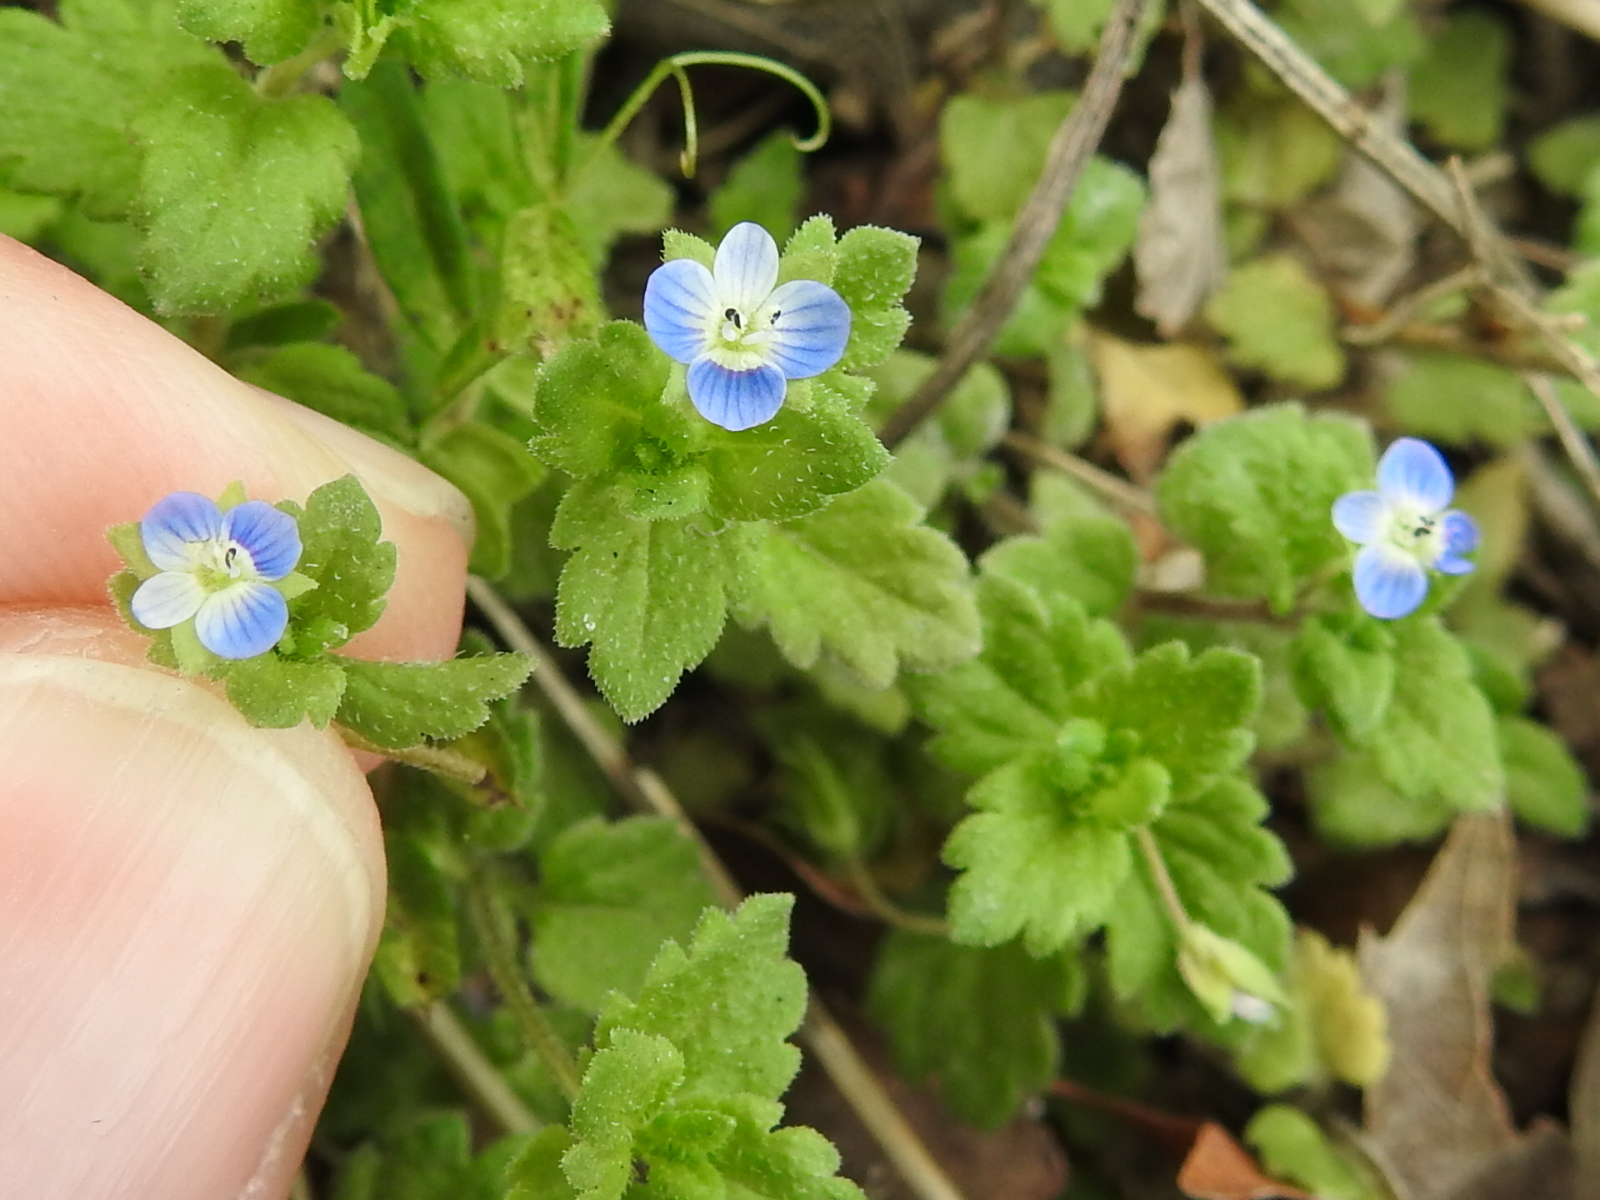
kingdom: Plantae
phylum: Tracheophyta
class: Magnoliopsida
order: Lamiales
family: Plantaginaceae
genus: Veronica
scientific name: Veronica polita
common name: Grey field-speedwell
